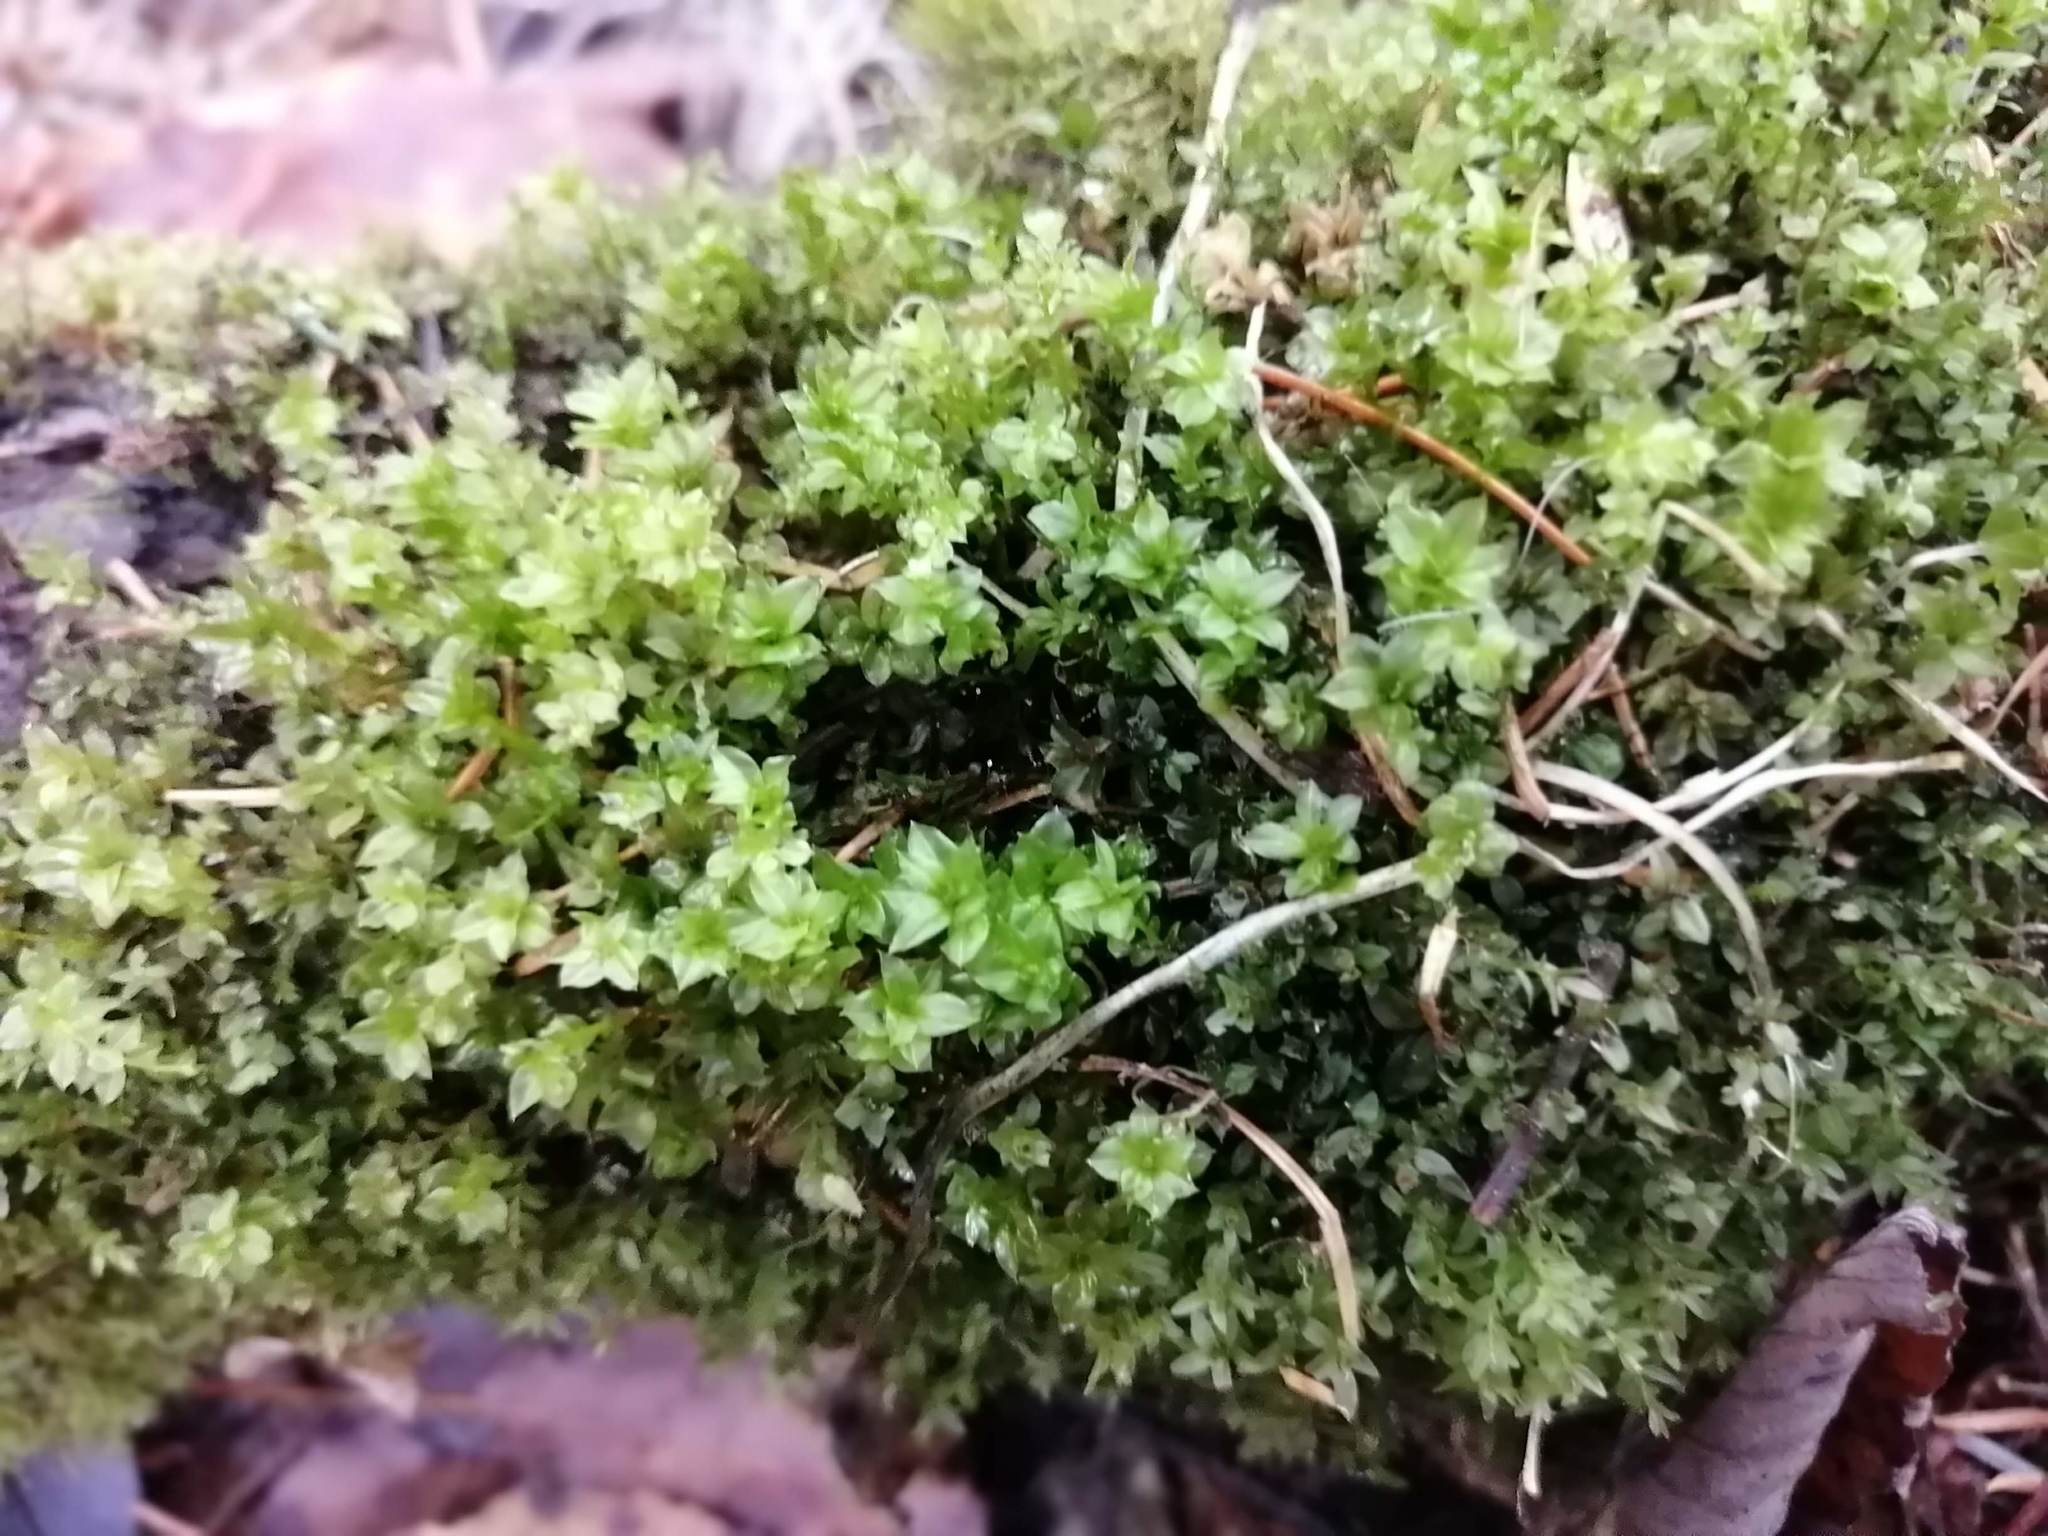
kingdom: Plantae
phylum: Bryophyta
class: Bryopsida
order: Bryales
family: Mniaceae
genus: Plagiomnium
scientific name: Plagiomnium cuspidatum
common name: Woodsy leafy moss
